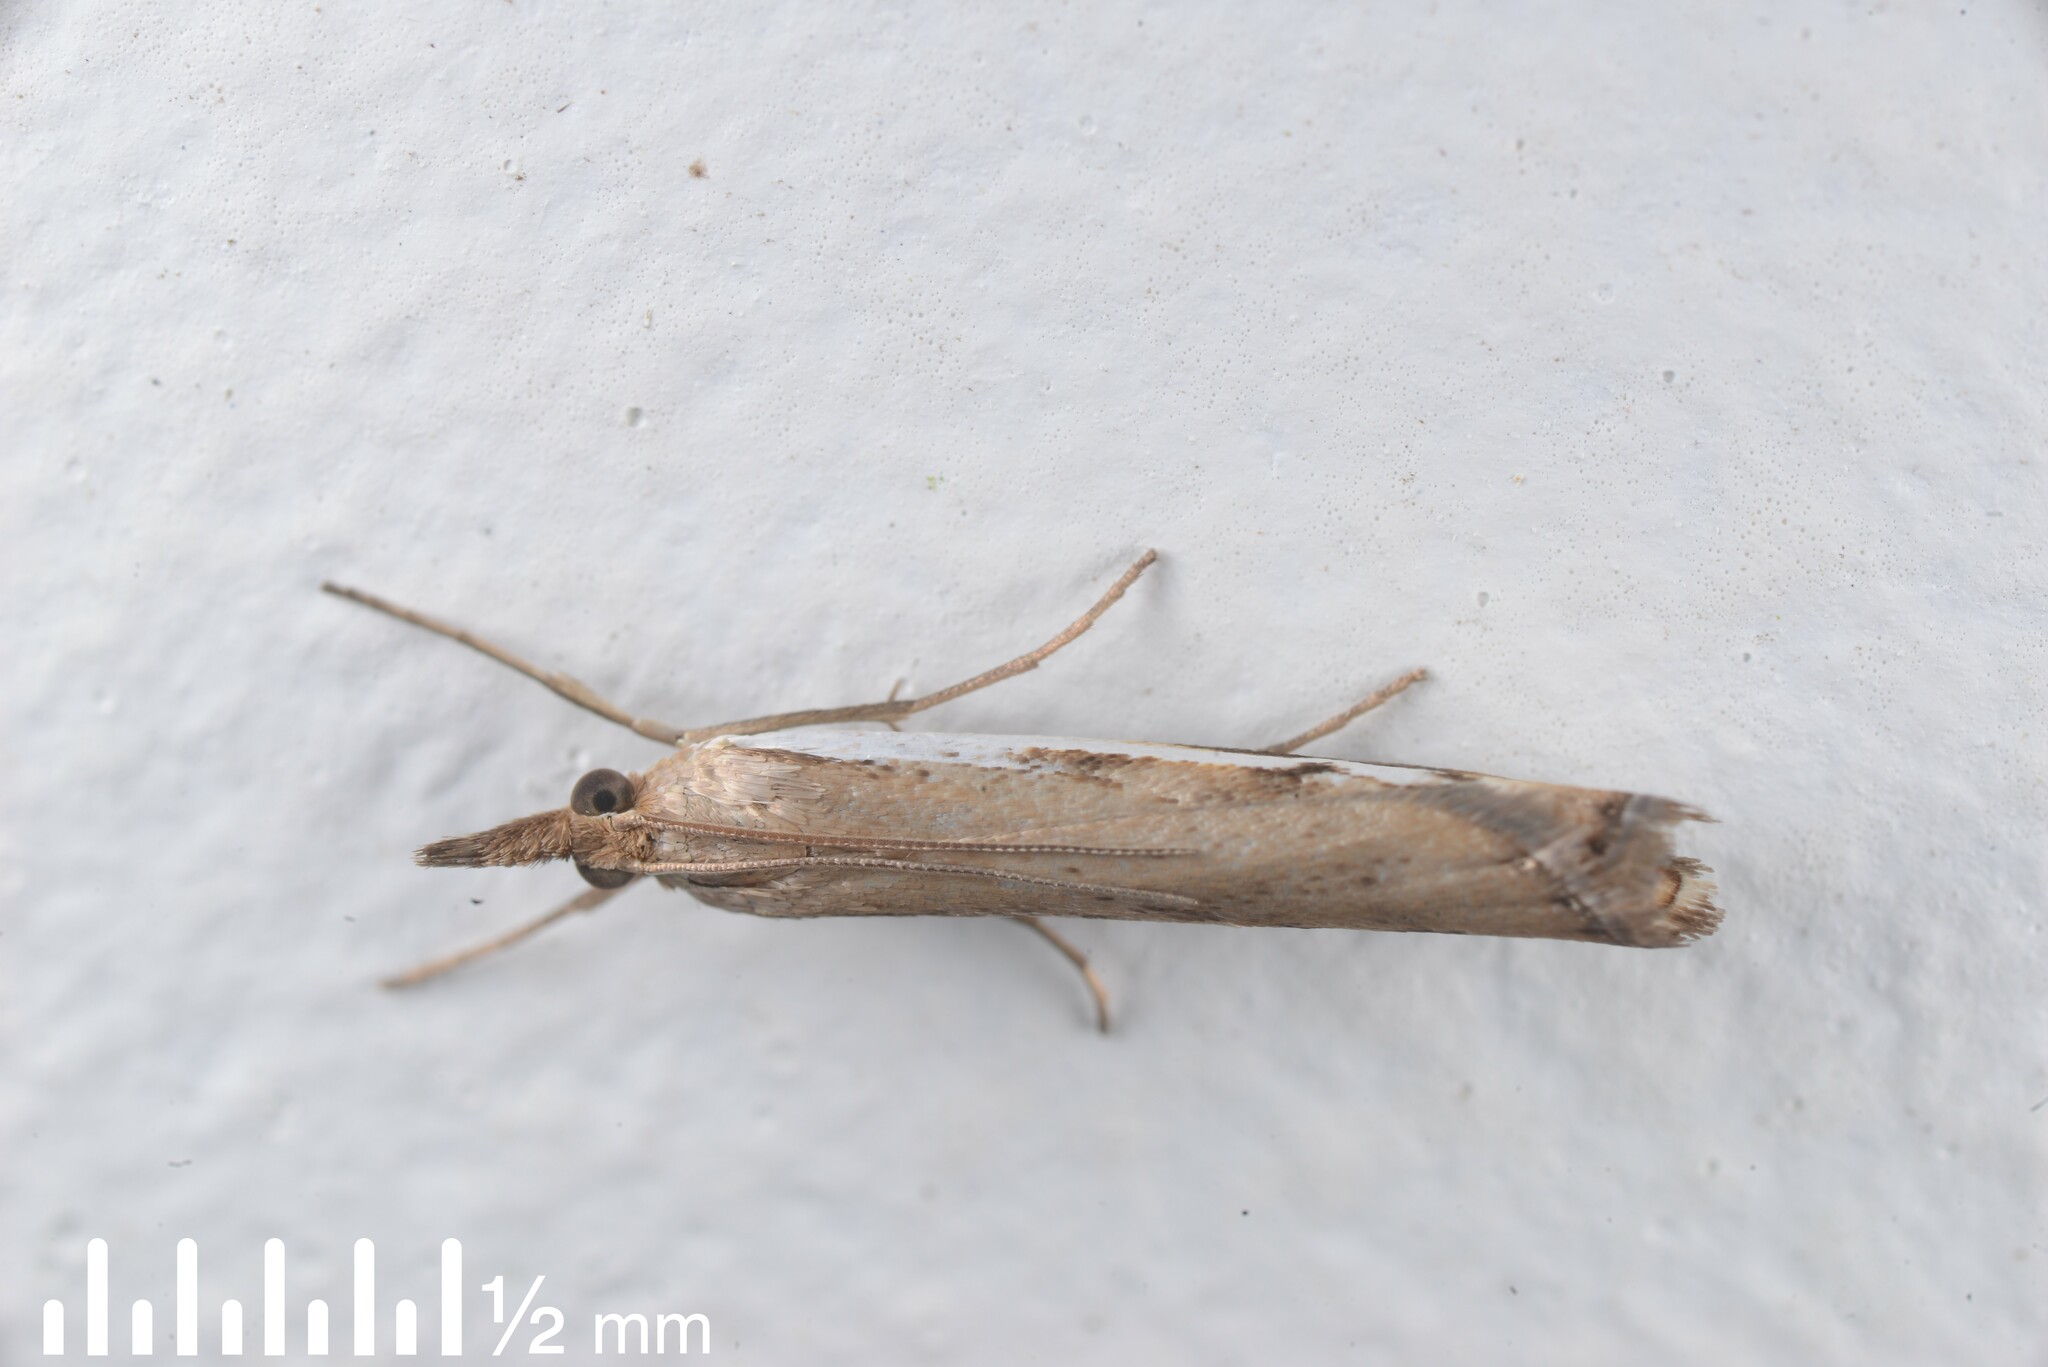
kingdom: Animalia
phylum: Arthropoda
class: Insecta
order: Lepidoptera
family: Crambidae
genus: Orocrambus
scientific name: Orocrambus flexuosellus
